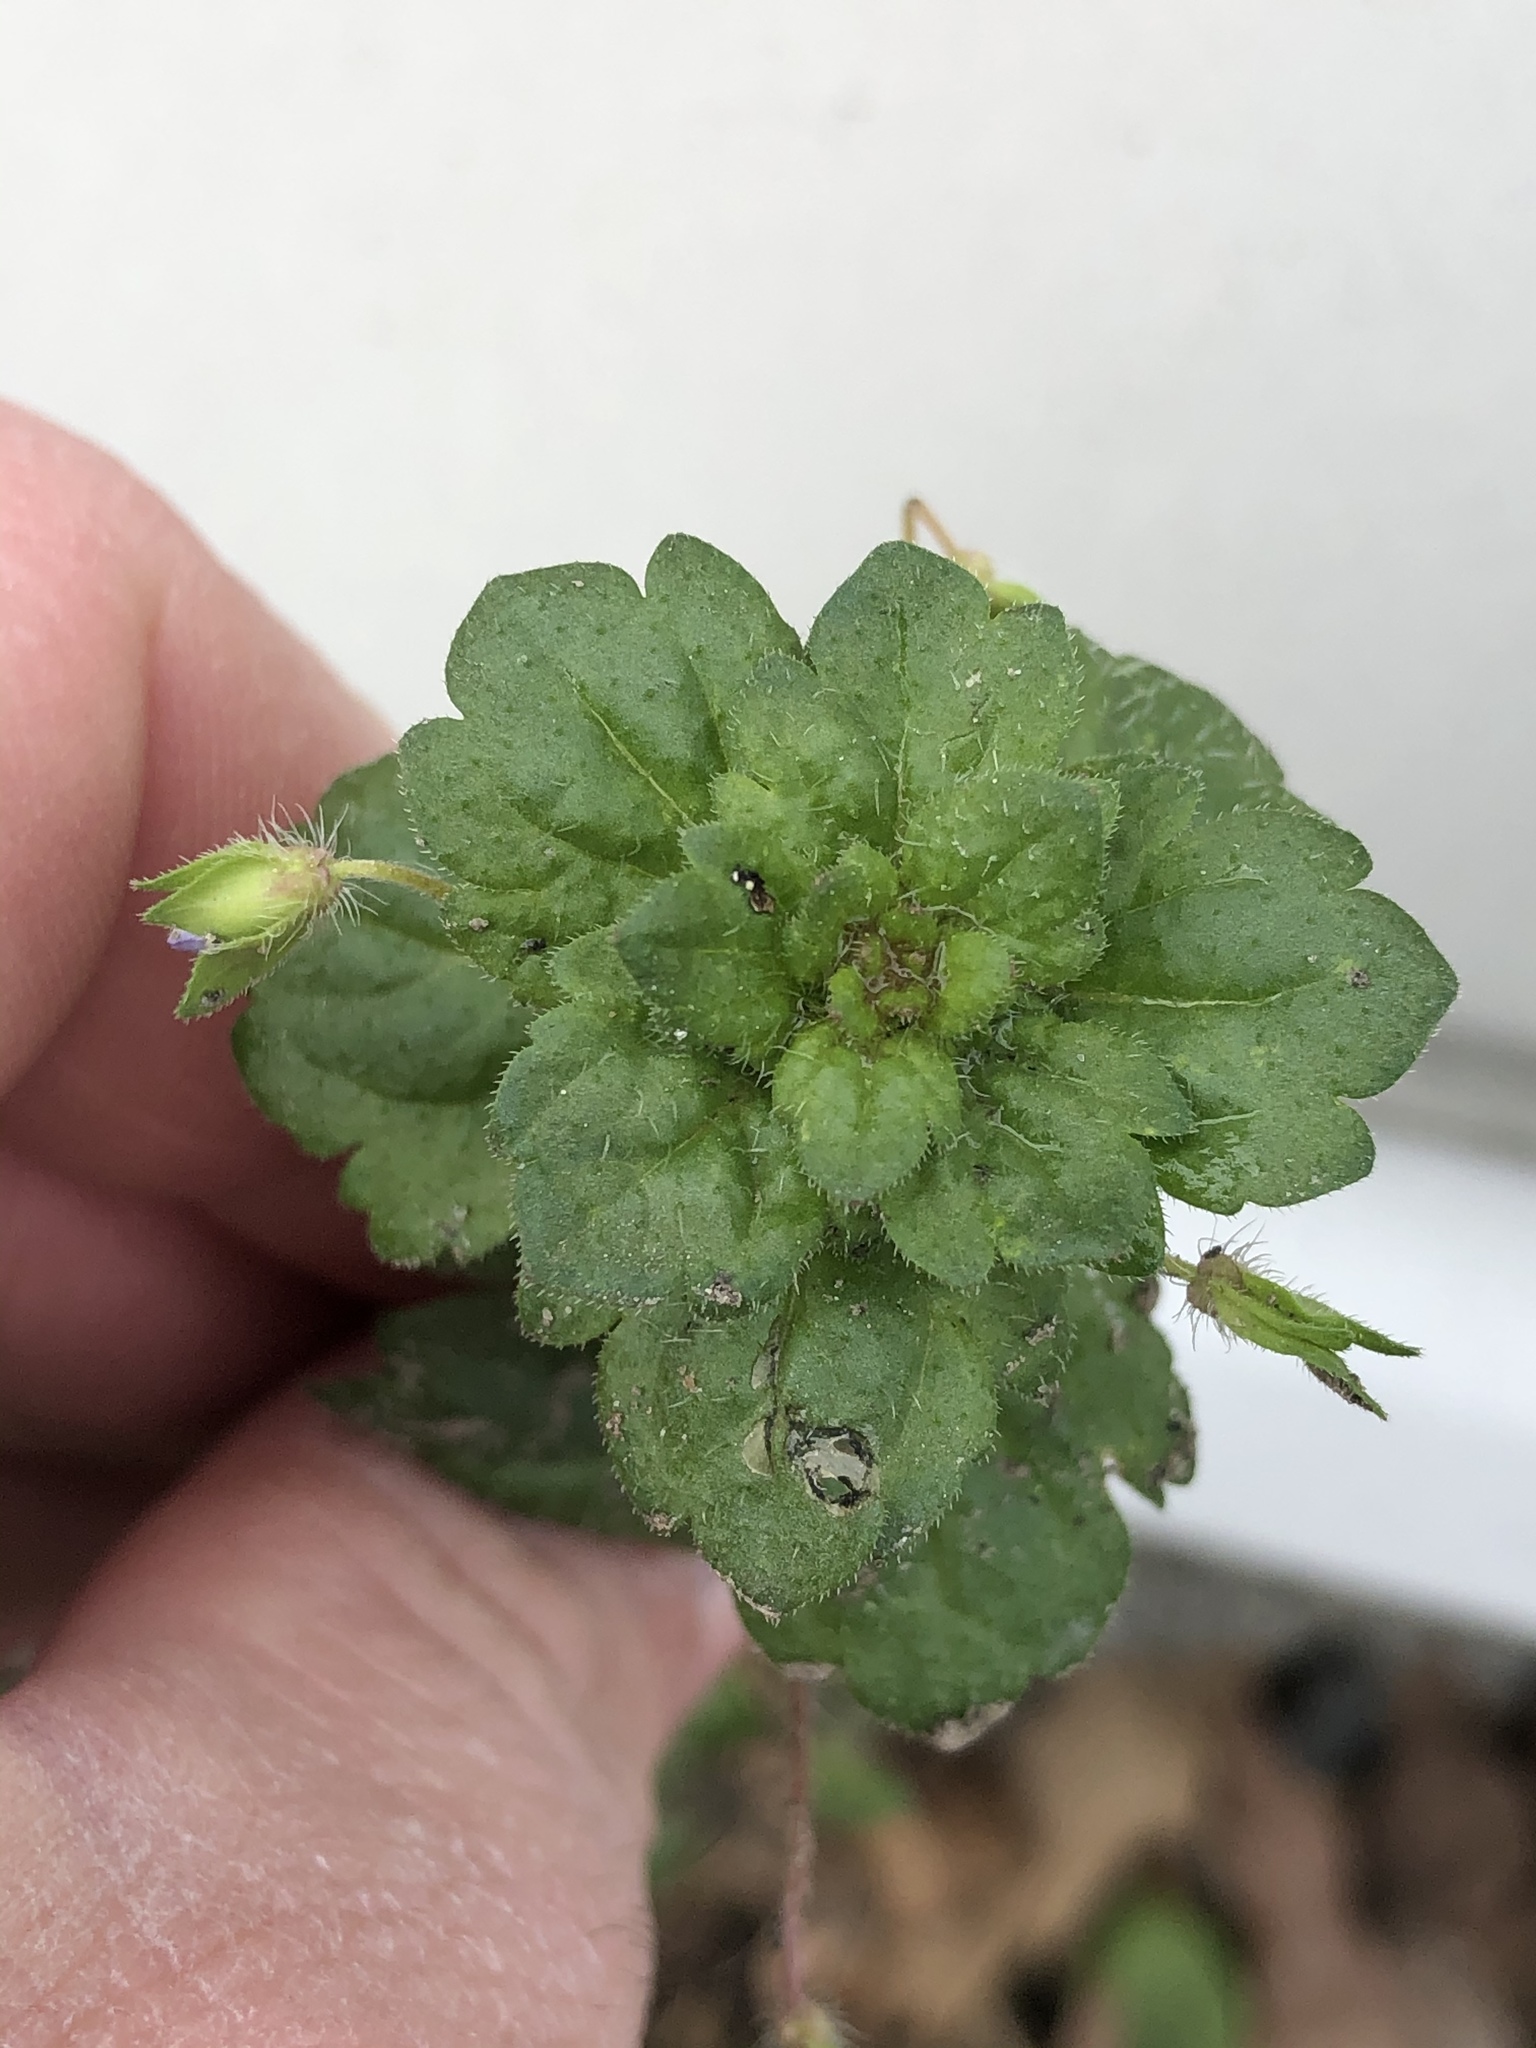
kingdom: Plantae
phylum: Tracheophyta
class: Magnoliopsida
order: Lamiales
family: Plantaginaceae
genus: Veronica
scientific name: Veronica persica
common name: Common field-speedwell
